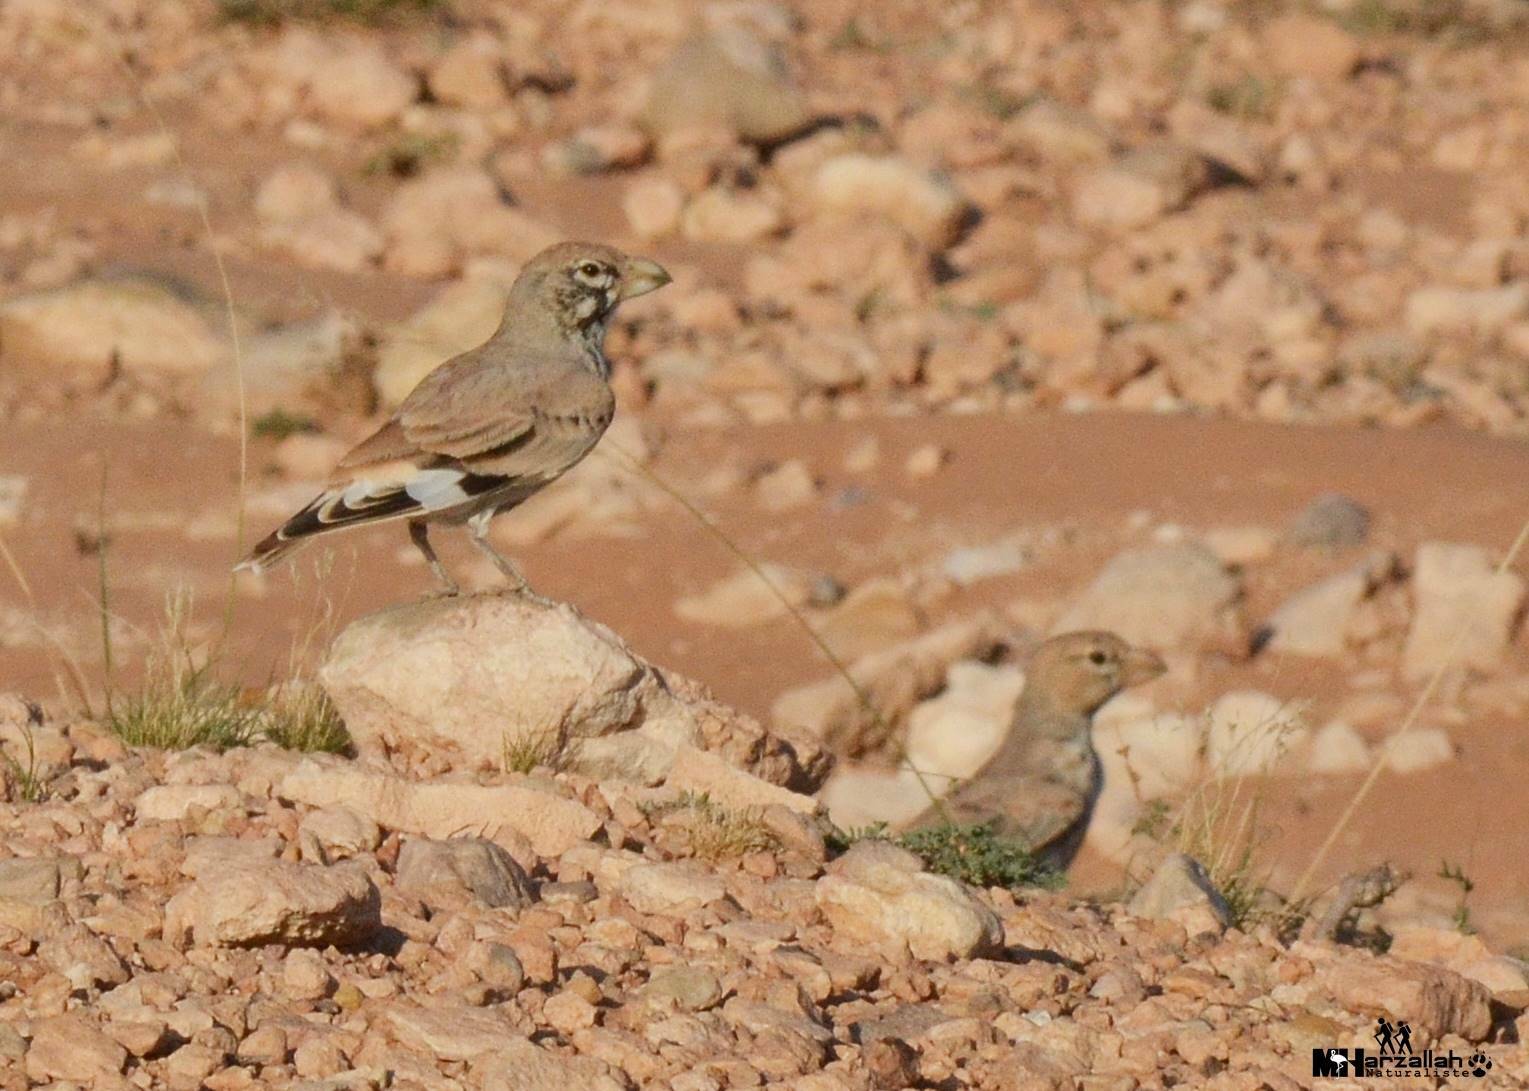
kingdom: Animalia
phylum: Chordata
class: Aves
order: Passeriformes
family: Alaudidae
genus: Ramphocoris
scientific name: Ramphocoris clotbey
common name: Thick-billed lark
